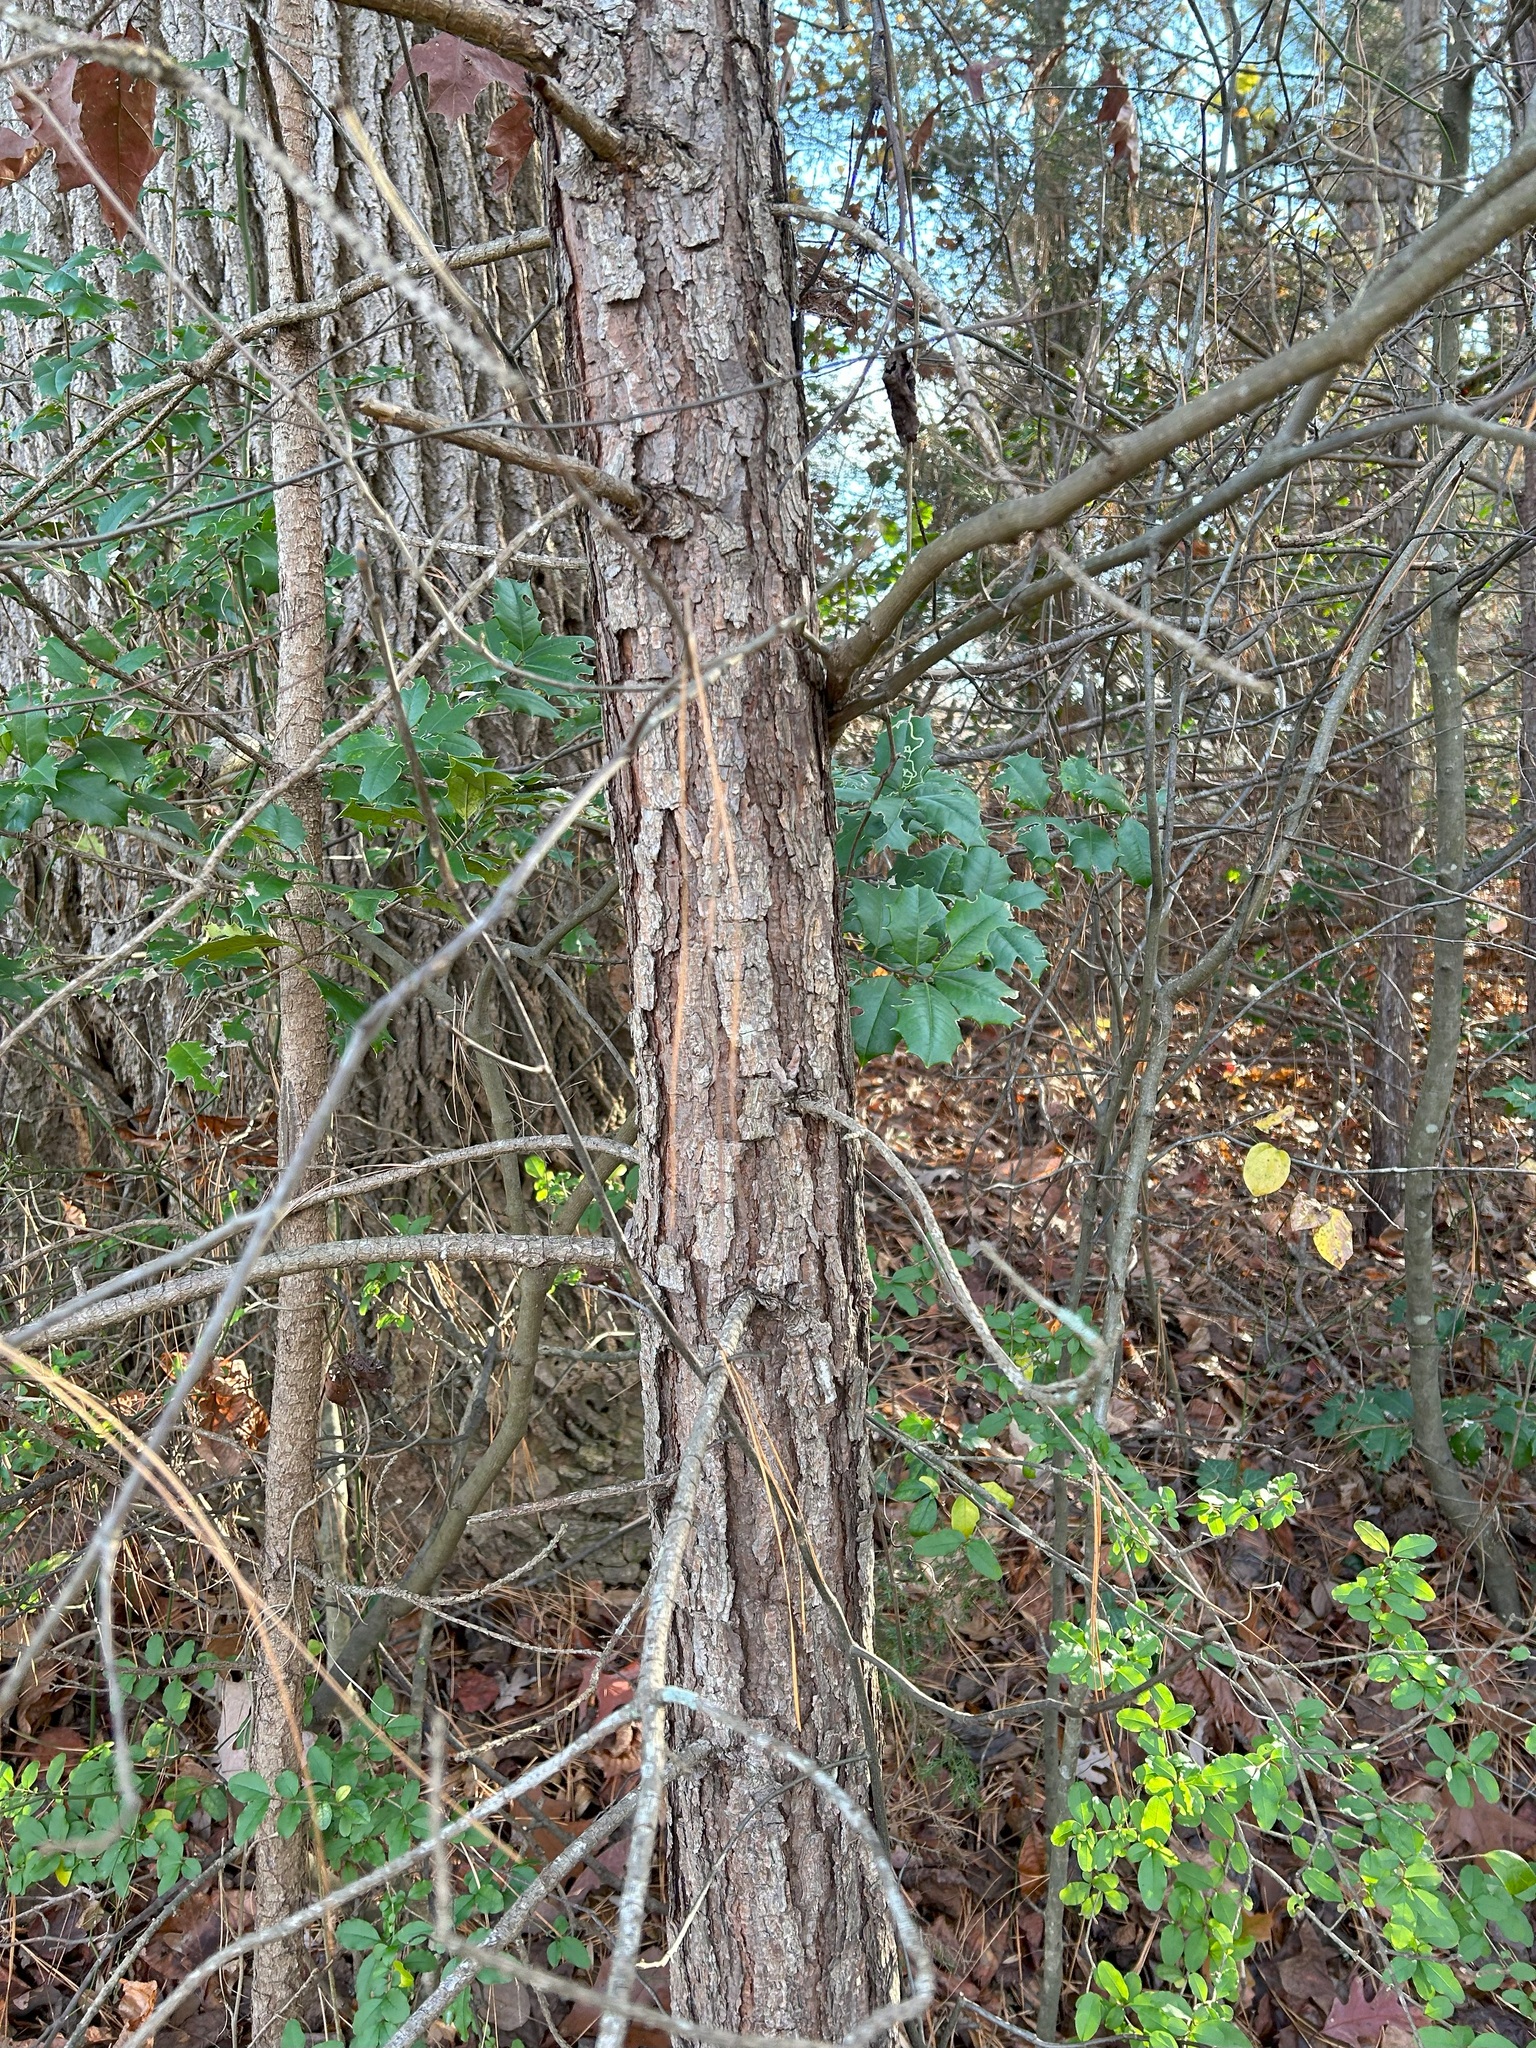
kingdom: Plantae
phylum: Tracheophyta
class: Pinopsida
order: Pinales
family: Pinaceae
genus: Pinus
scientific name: Pinus taeda
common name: Loblolly pine
